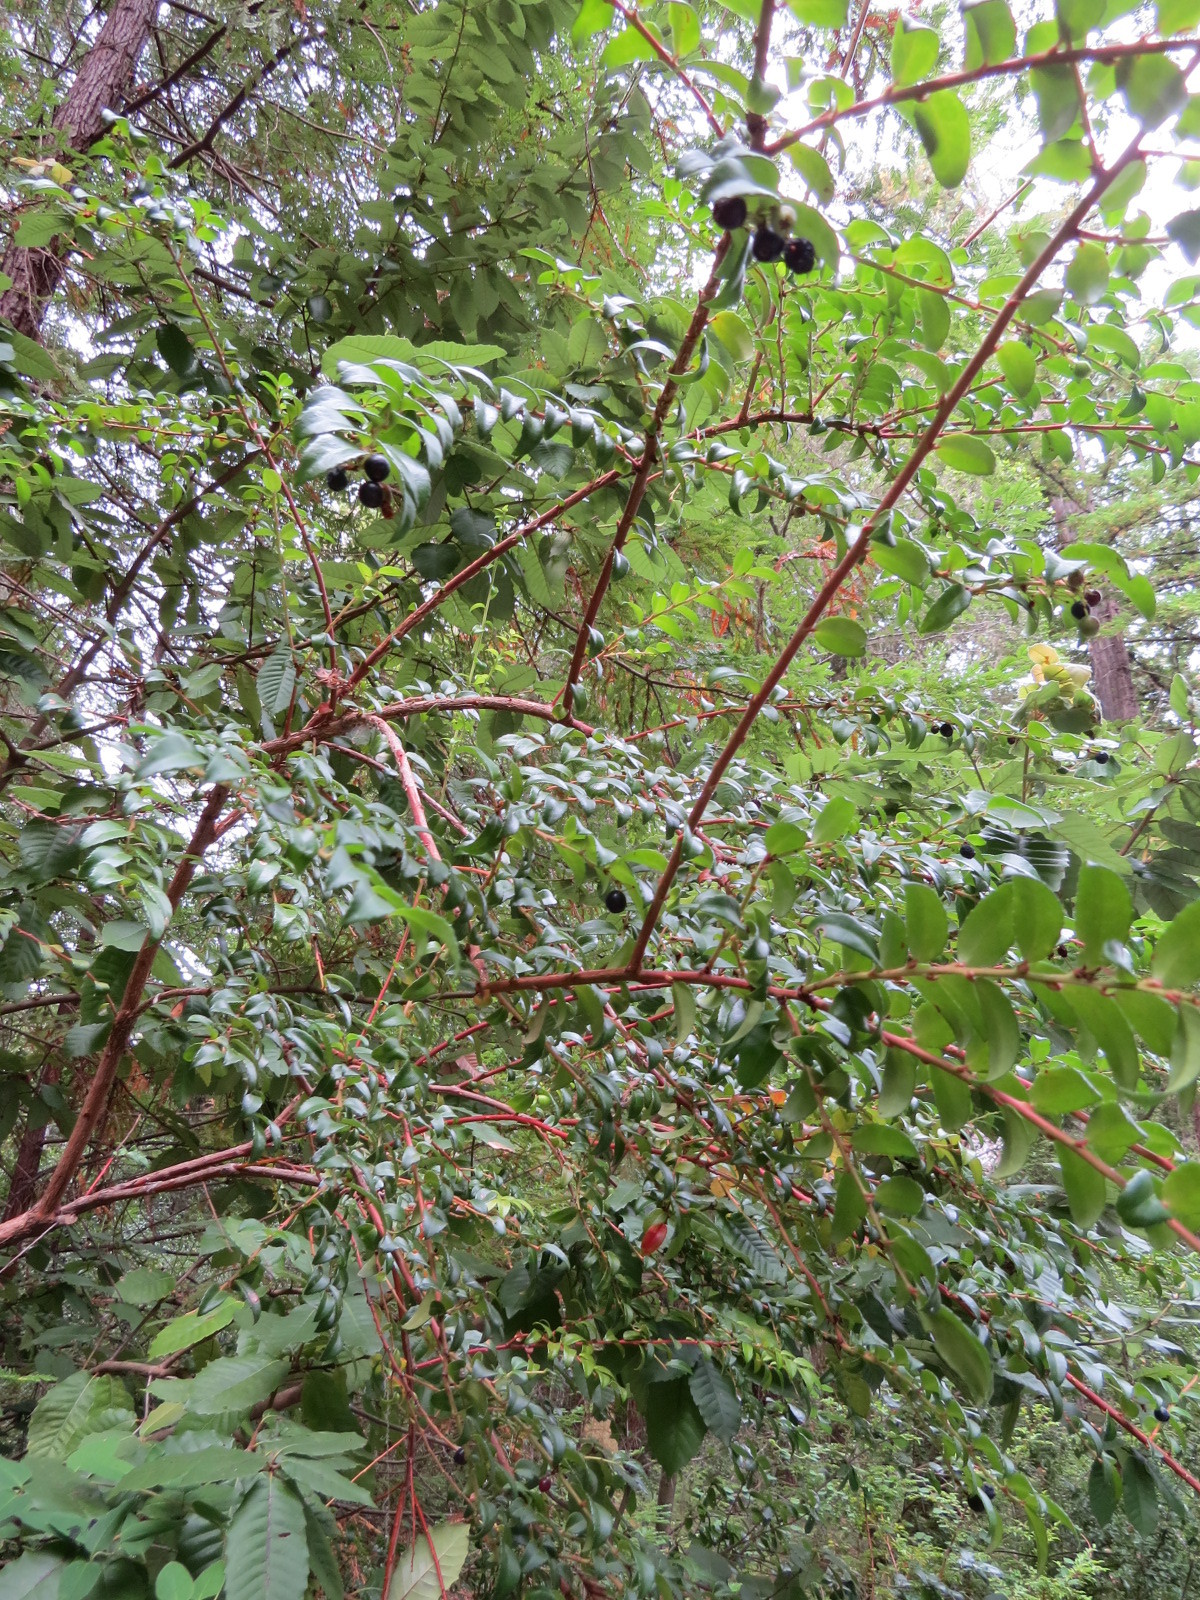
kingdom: Plantae
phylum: Tracheophyta
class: Magnoliopsida
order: Ericales
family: Ericaceae
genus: Vaccinium
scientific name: Vaccinium ovatum
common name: California-huckleberry
